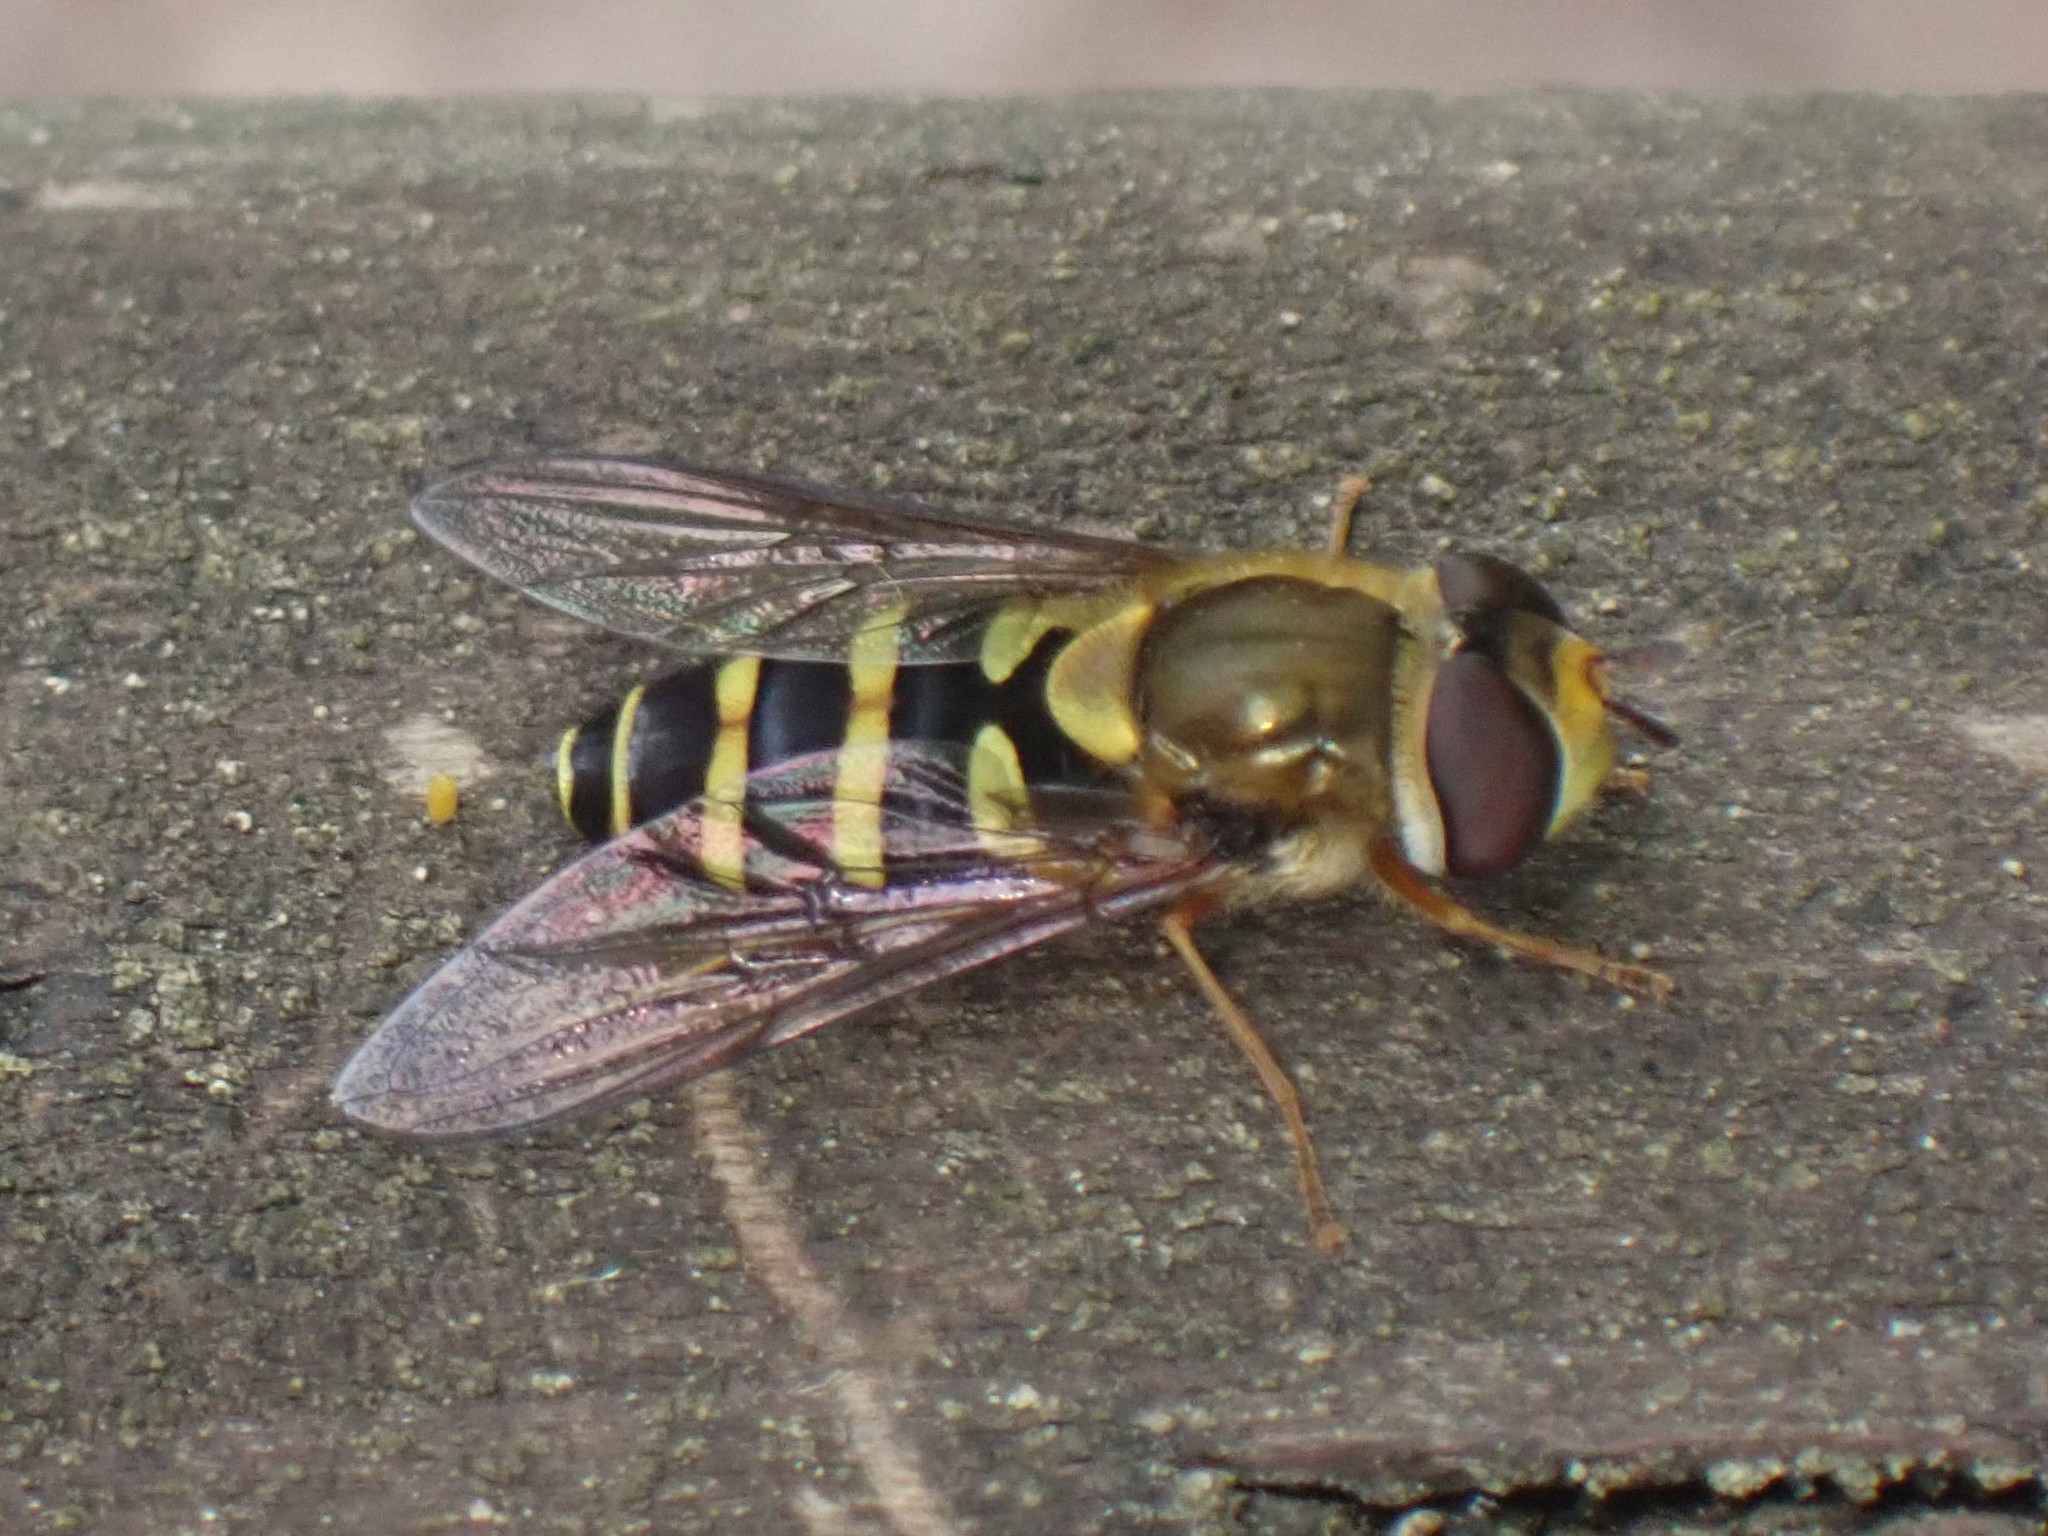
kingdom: Animalia
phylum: Arthropoda
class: Insecta
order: Diptera
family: Syrphidae
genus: Syrphus
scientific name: Syrphus opinator
